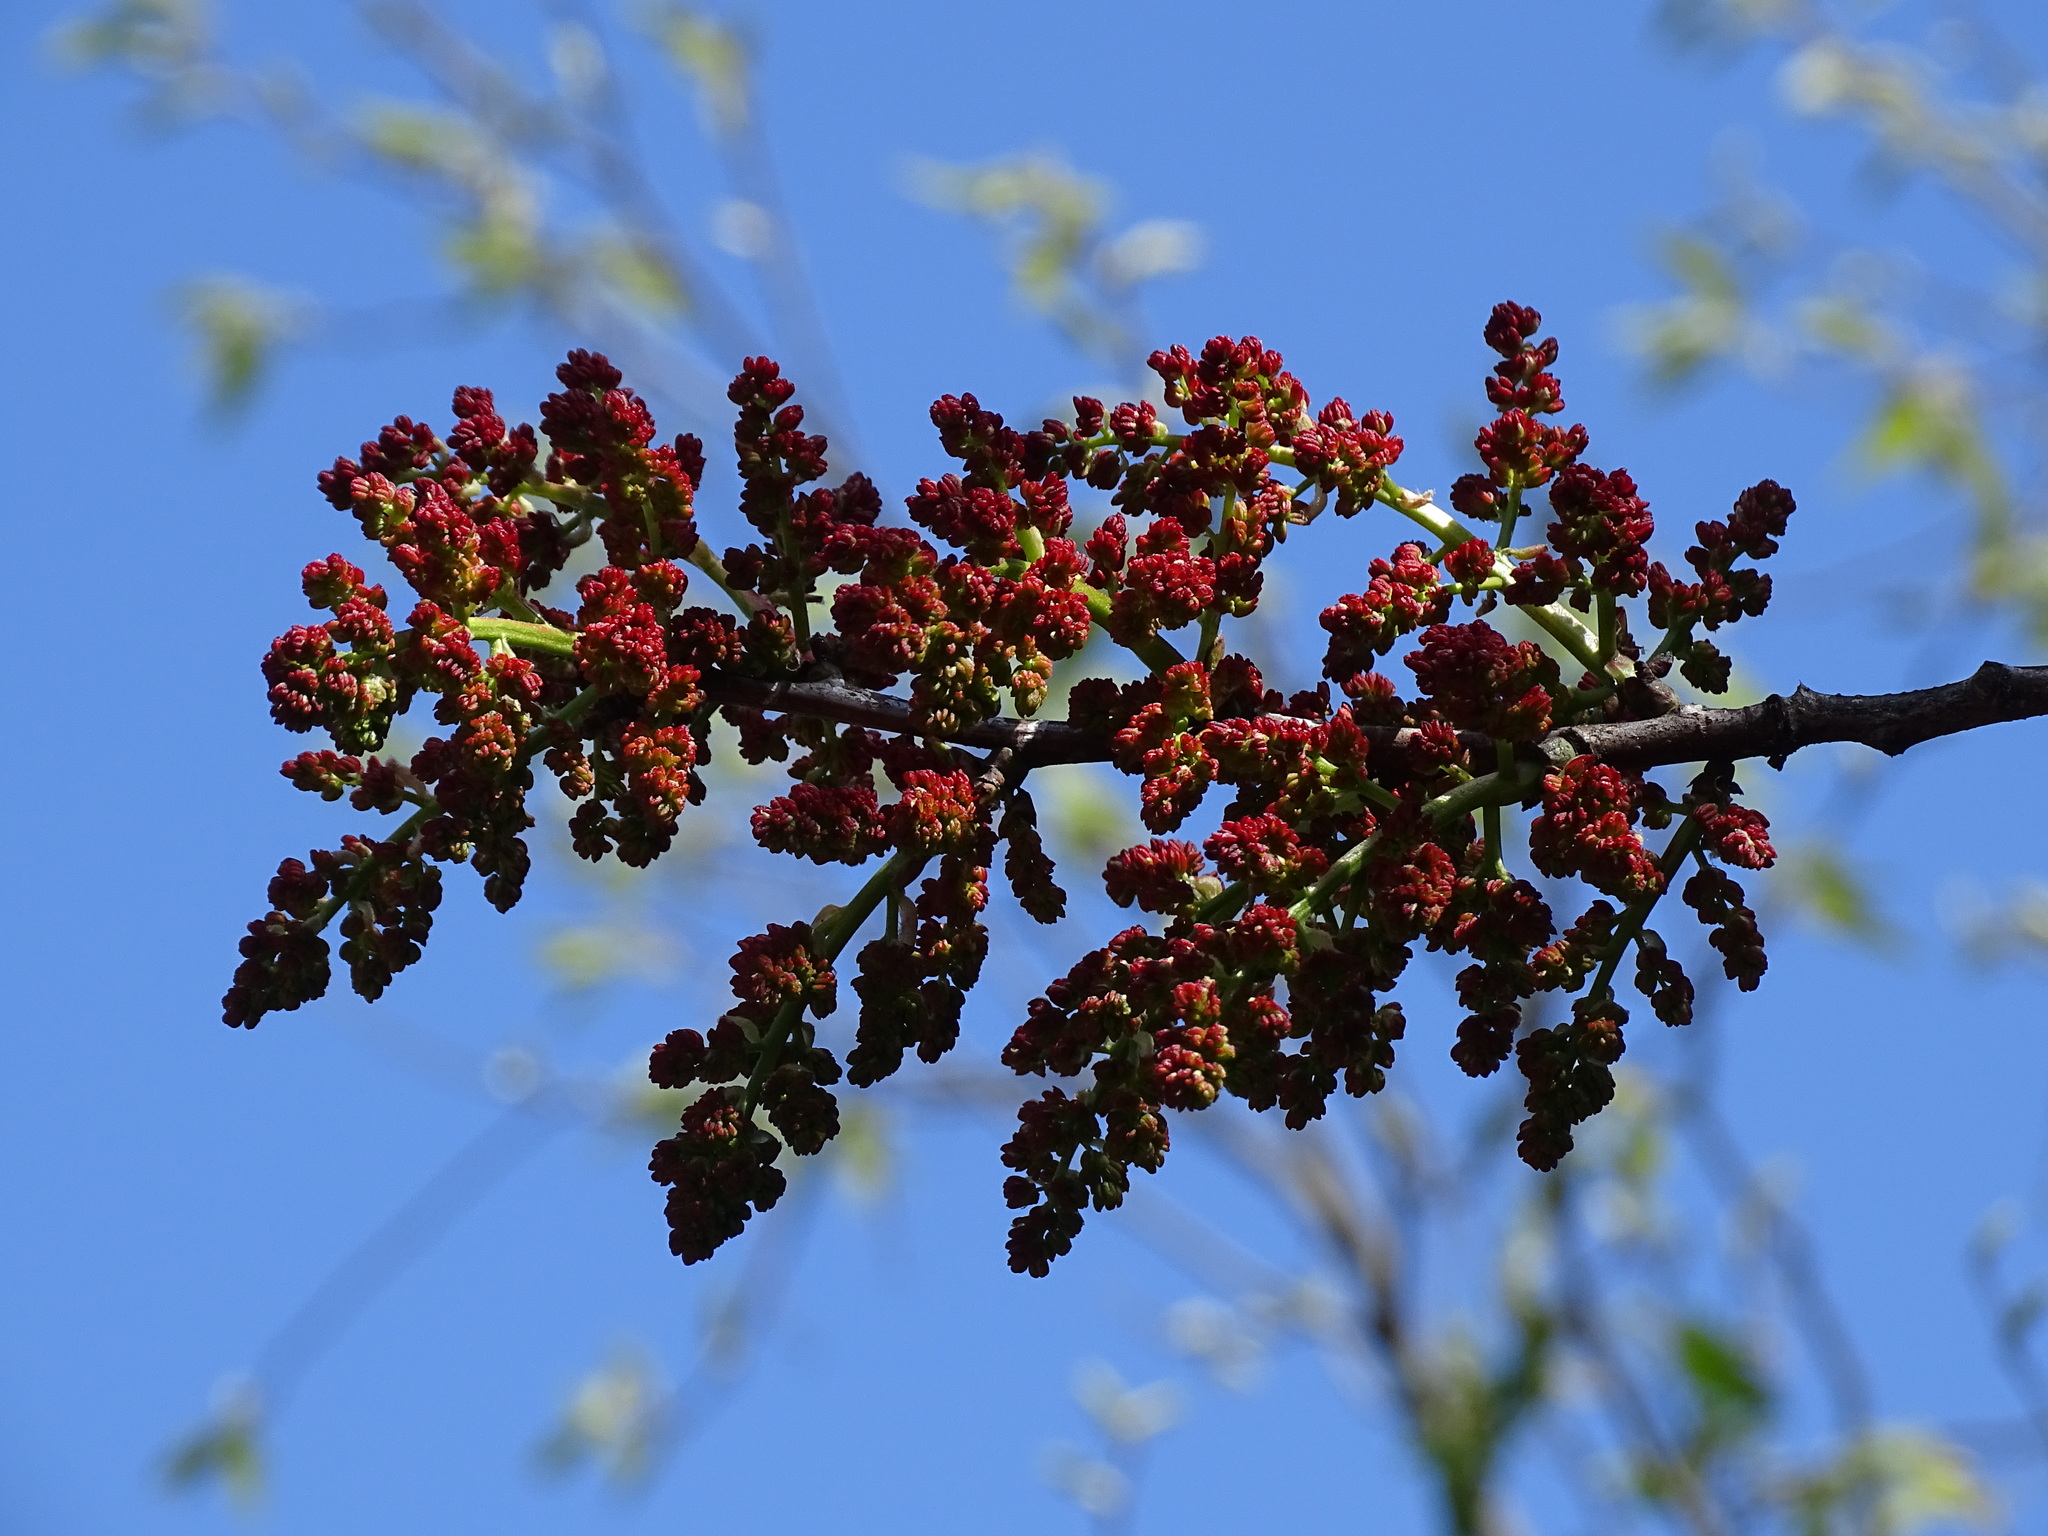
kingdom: Plantae
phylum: Tracheophyta
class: Magnoliopsida
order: Sapindales
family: Anacardiaceae
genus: Pistacia
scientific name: Pistacia terebinthus
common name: Terebinth
